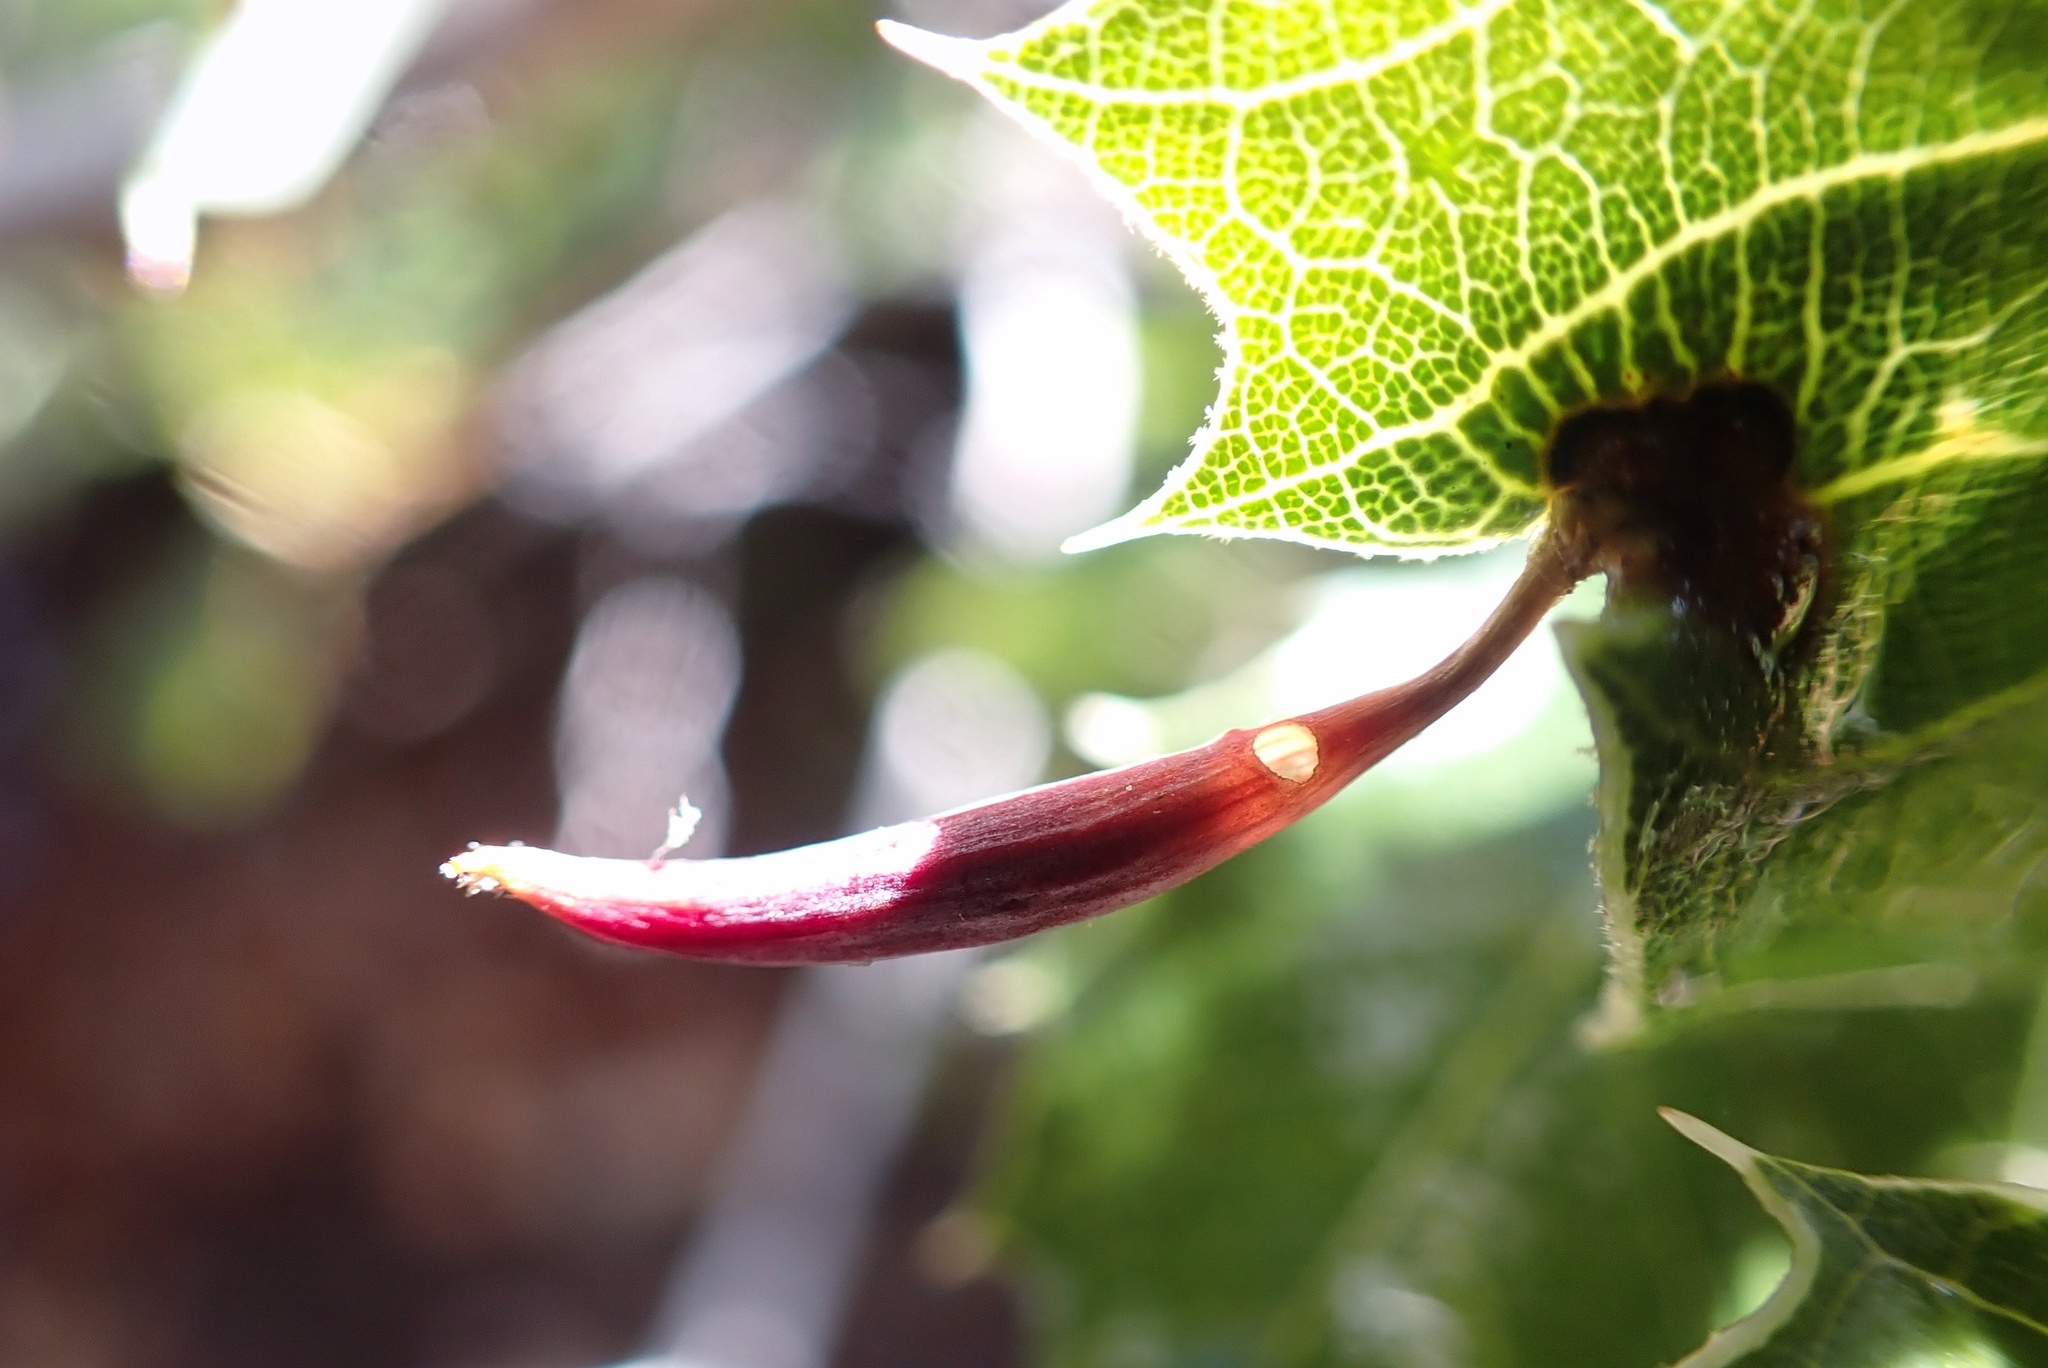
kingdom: Animalia
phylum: Arthropoda
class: Insecta
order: Hymenoptera
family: Cynipidae
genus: Heteroecus
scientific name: Heteroecus
